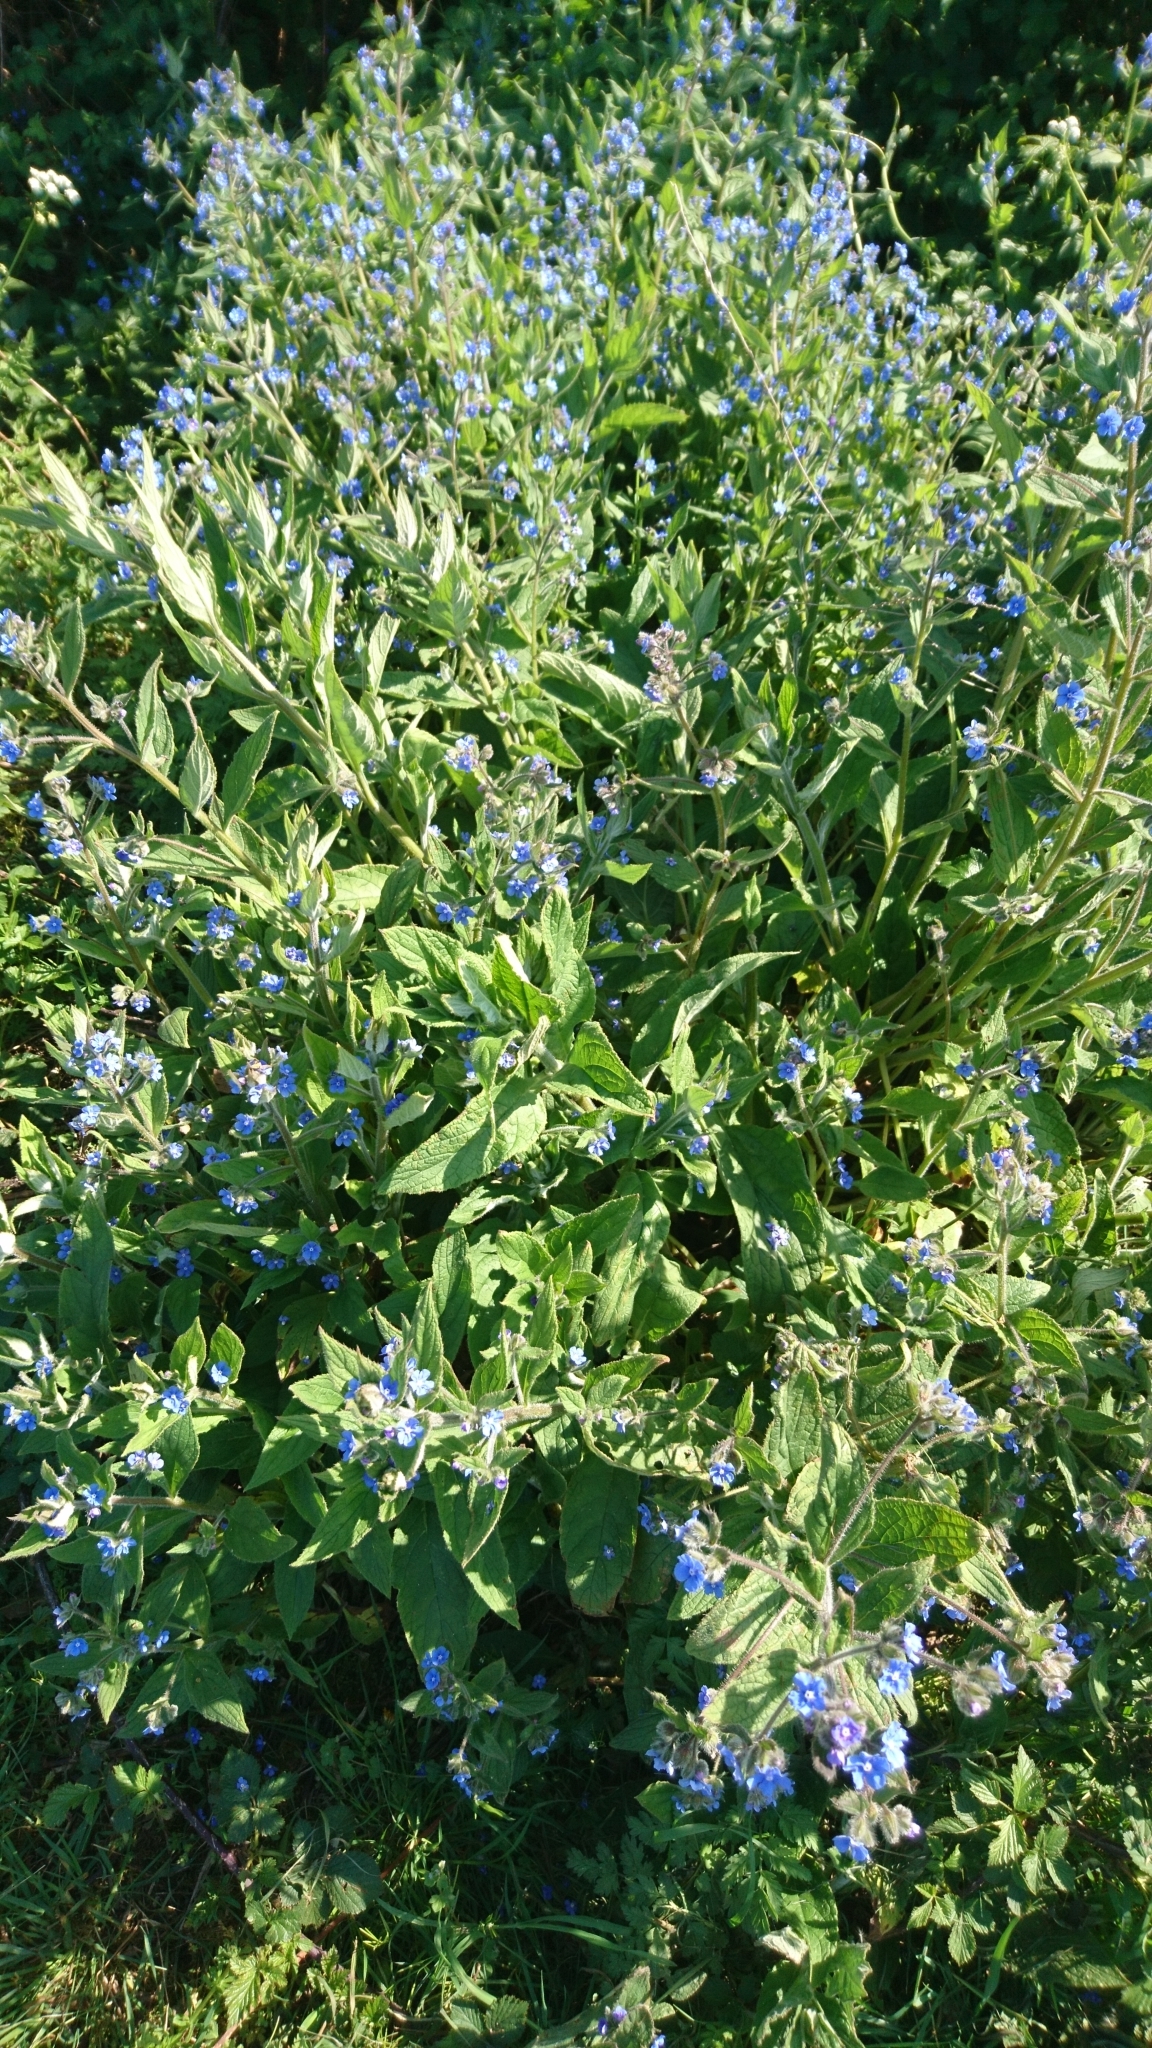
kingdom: Plantae
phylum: Tracheophyta
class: Magnoliopsida
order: Boraginales
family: Boraginaceae
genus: Pentaglottis
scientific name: Pentaglottis sempervirens
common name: Green alkanet
